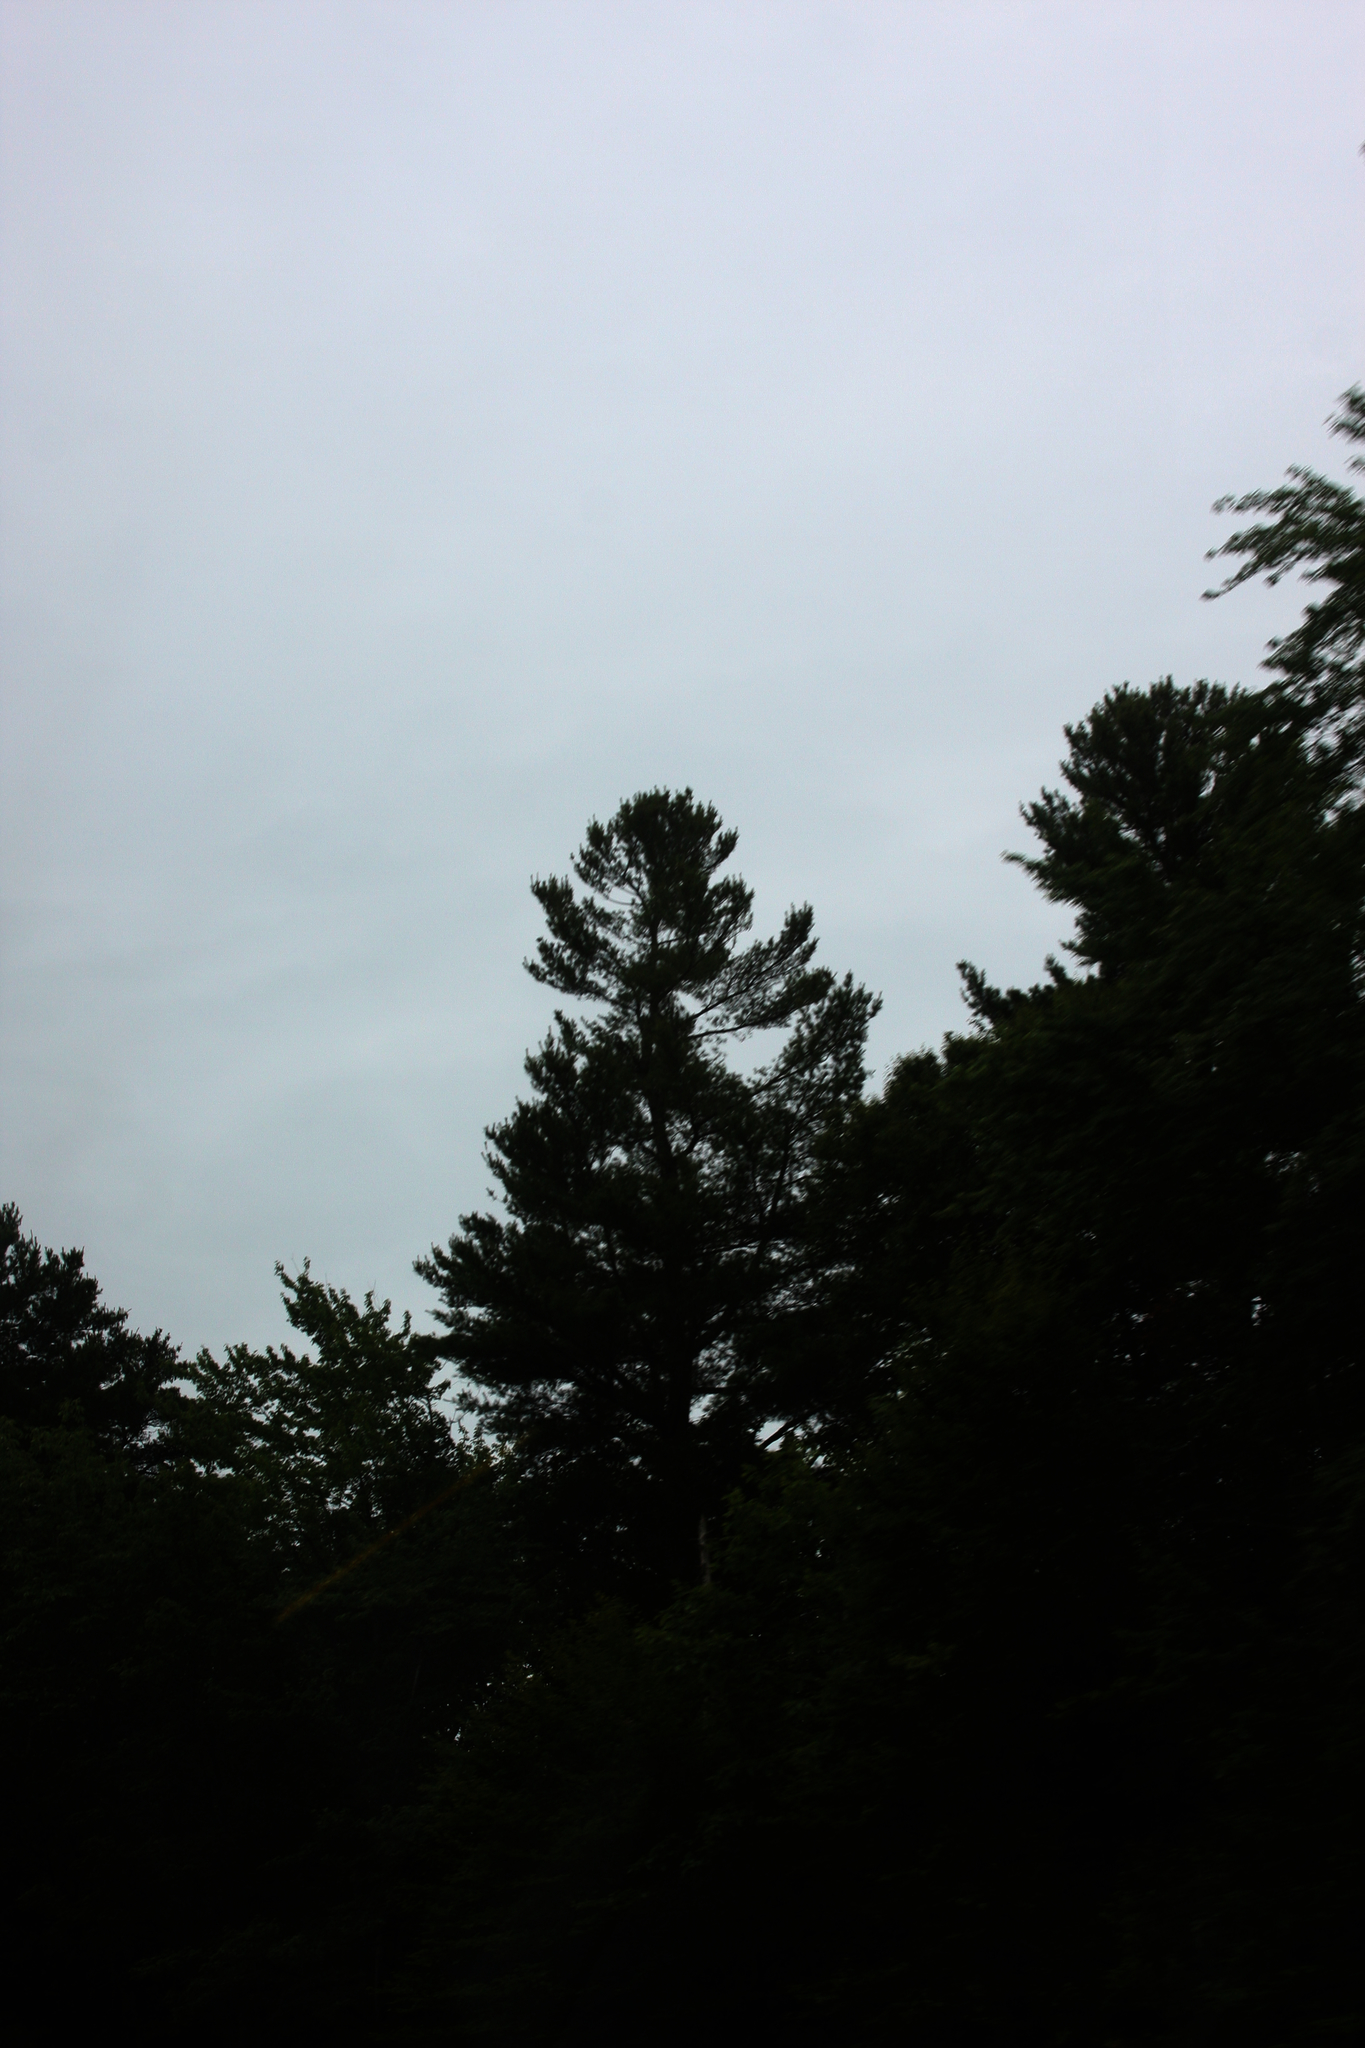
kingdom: Plantae
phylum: Tracheophyta
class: Pinopsida
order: Pinales
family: Pinaceae
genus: Pinus
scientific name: Pinus strobus
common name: Weymouth pine
